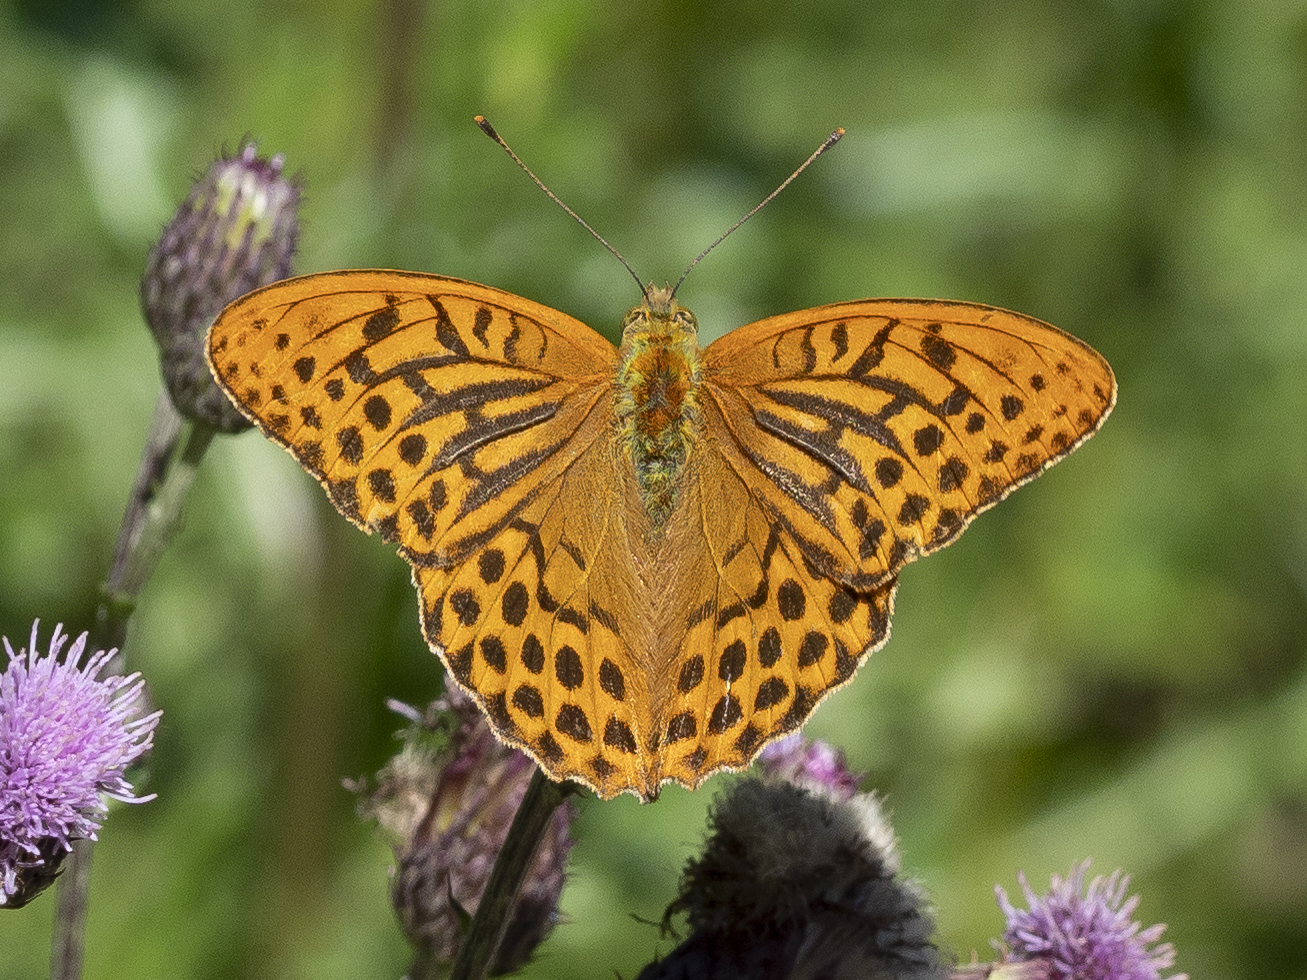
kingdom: Animalia
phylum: Arthropoda
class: Insecta
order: Lepidoptera
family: Nymphalidae
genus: Argynnis
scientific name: Argynnis paphia
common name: Silver-washed fritillary
